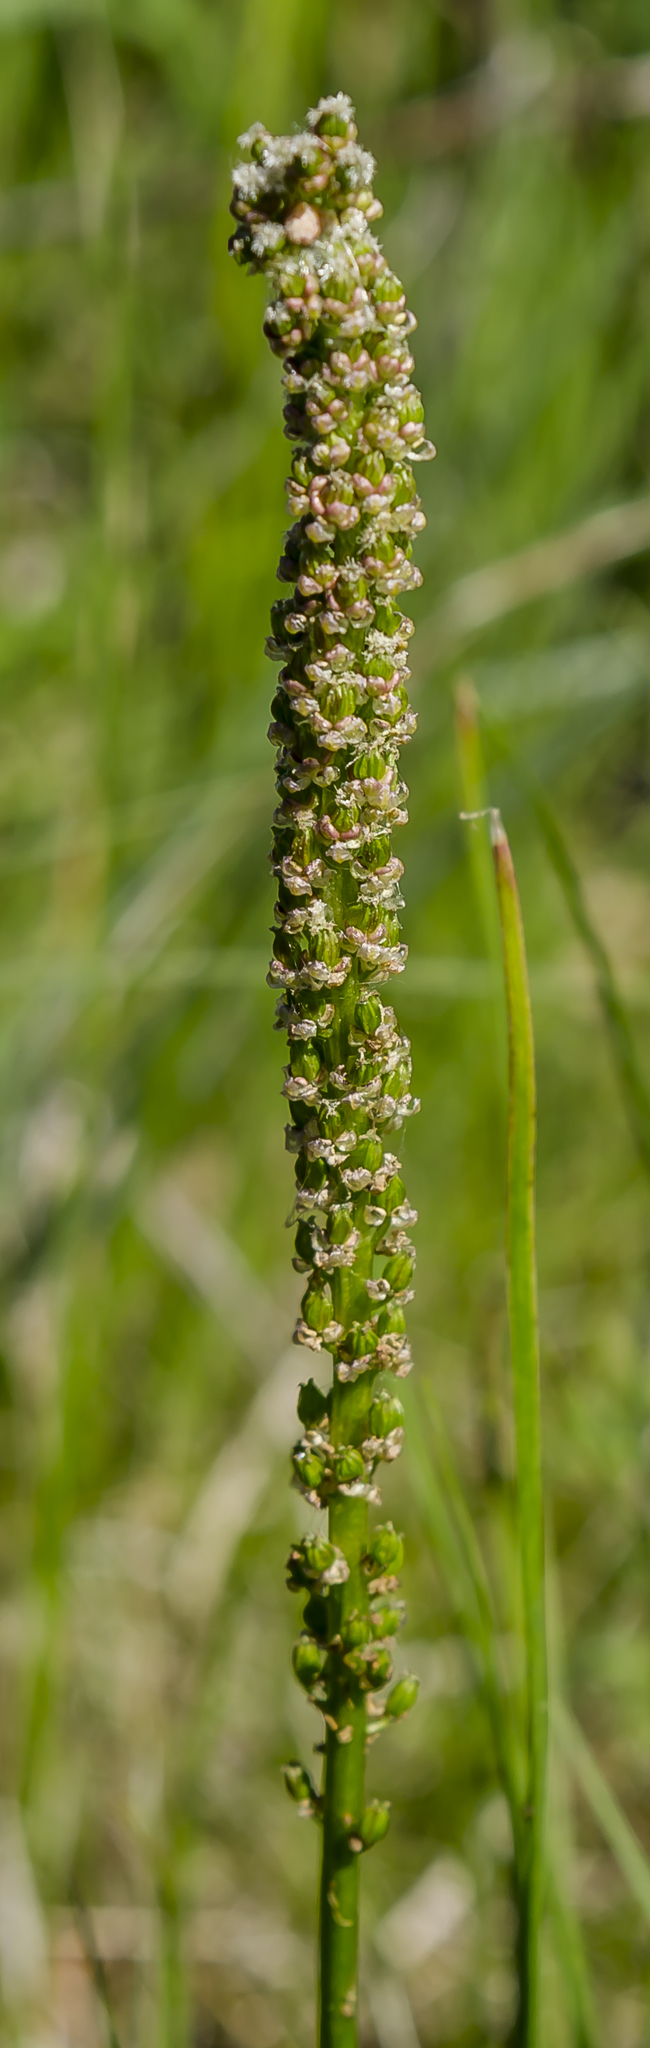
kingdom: Plantae
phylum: Tracheophyta
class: Liliopsida
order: Alismatales
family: Juncaginaceae
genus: Triglochin
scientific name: Triglochin maritima
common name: Sea arrowgrass
